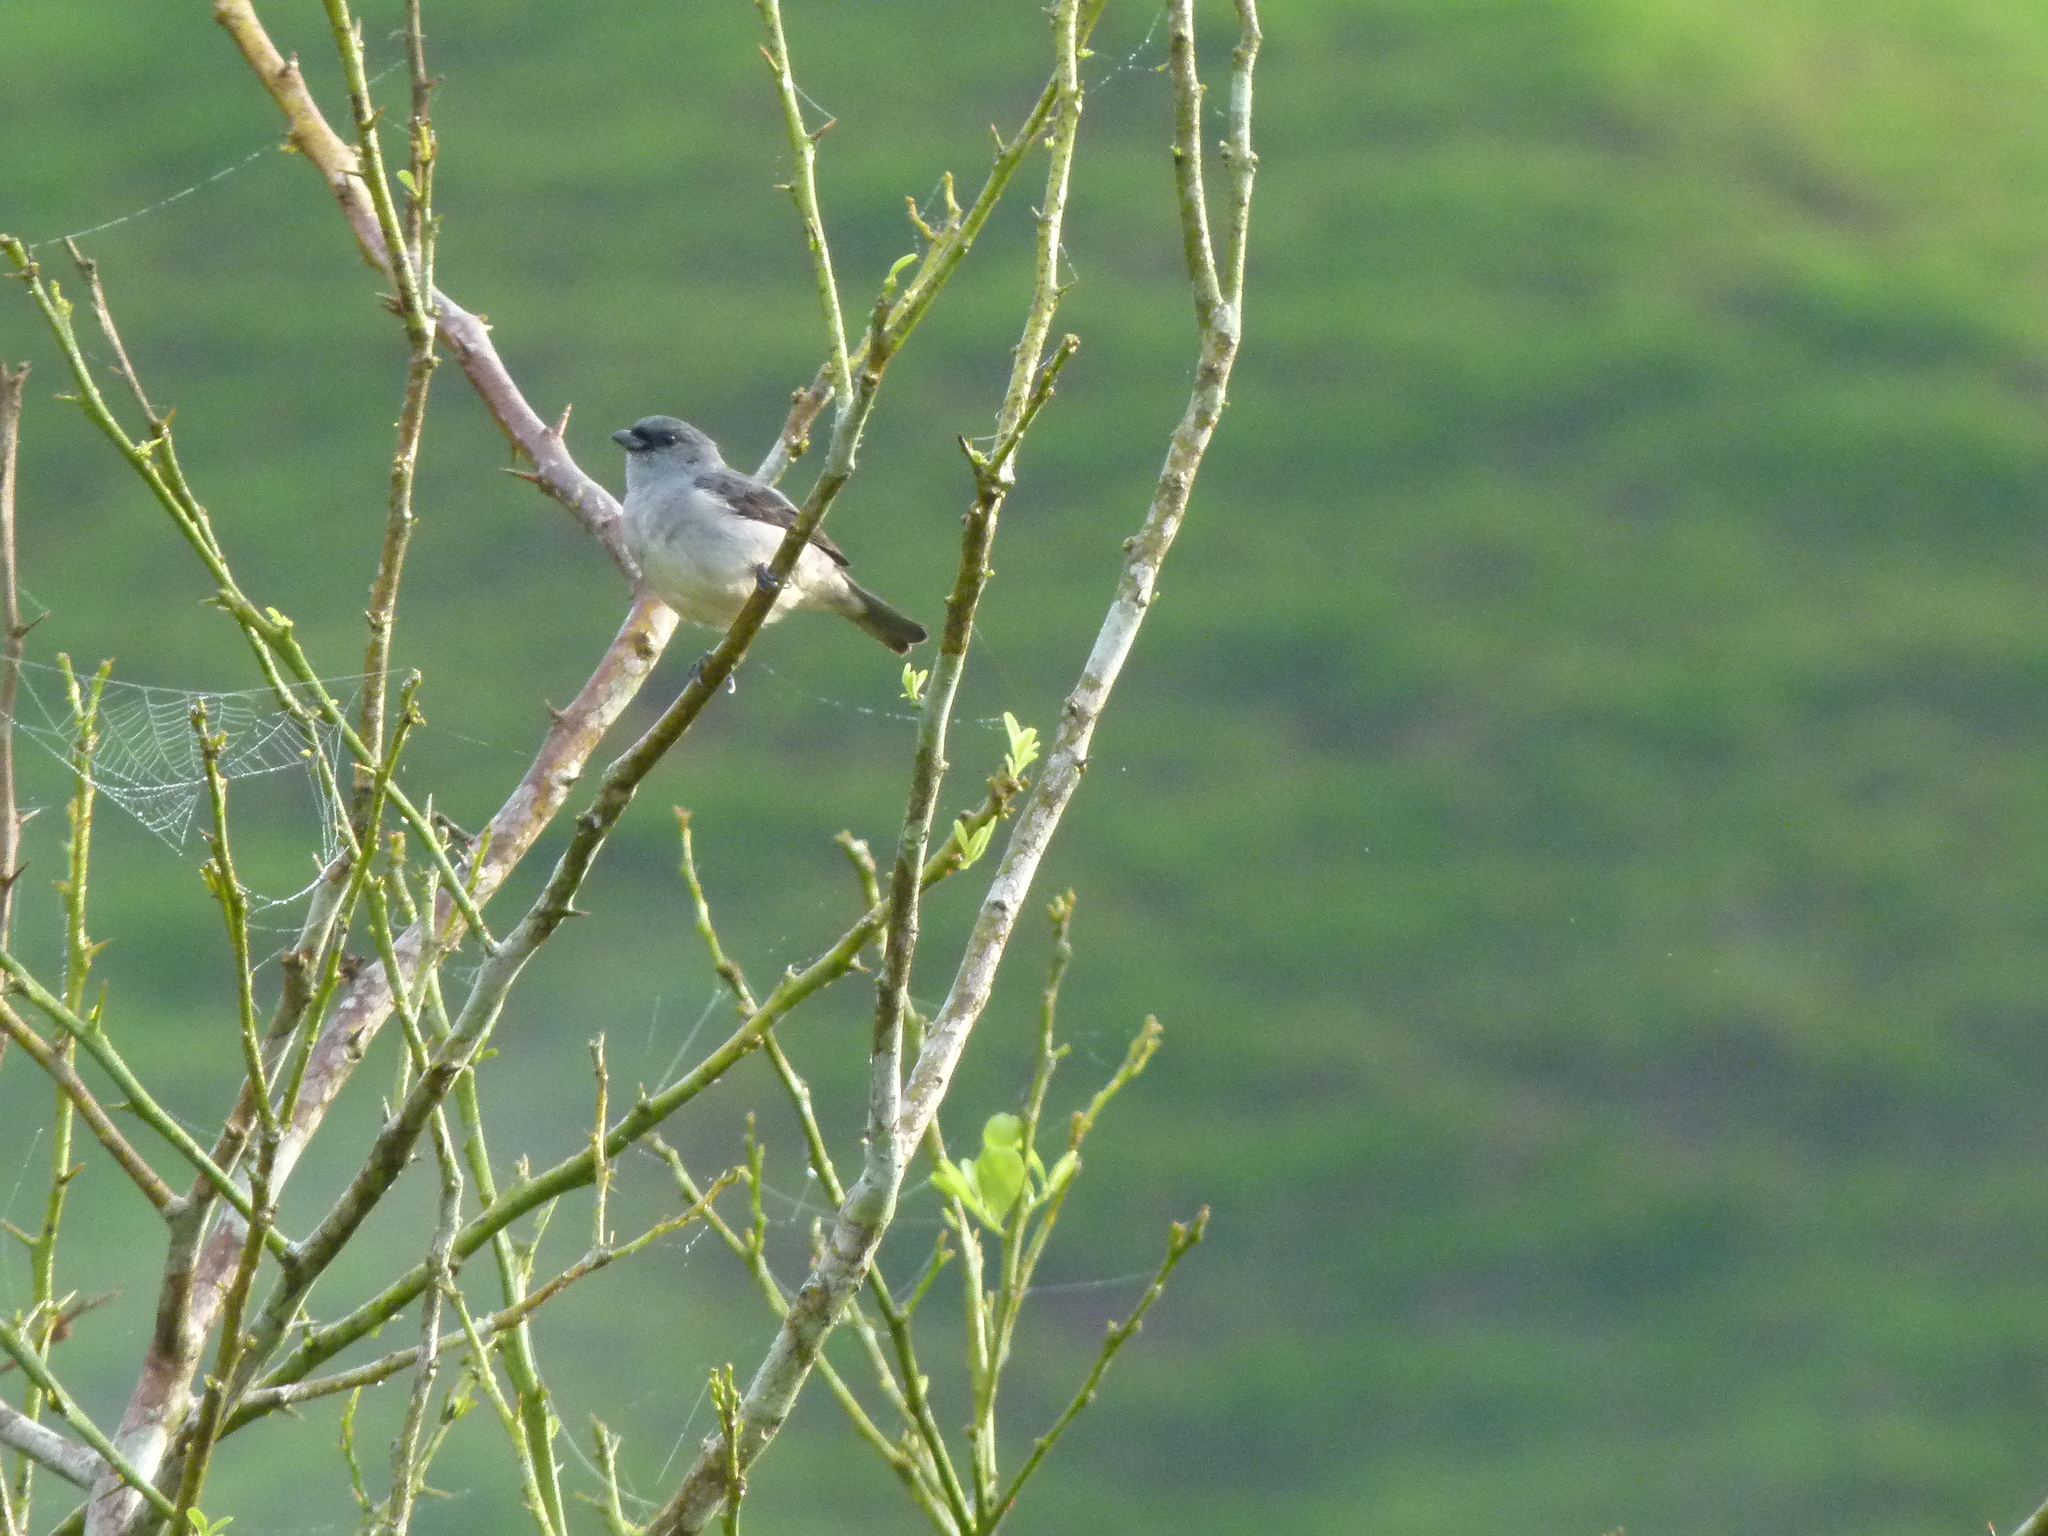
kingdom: Animalia
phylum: Chordata
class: Aves
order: Passeriformes
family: Thraupidae
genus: Tangara
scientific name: Tangara inornata
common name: Plain-colored tanager
